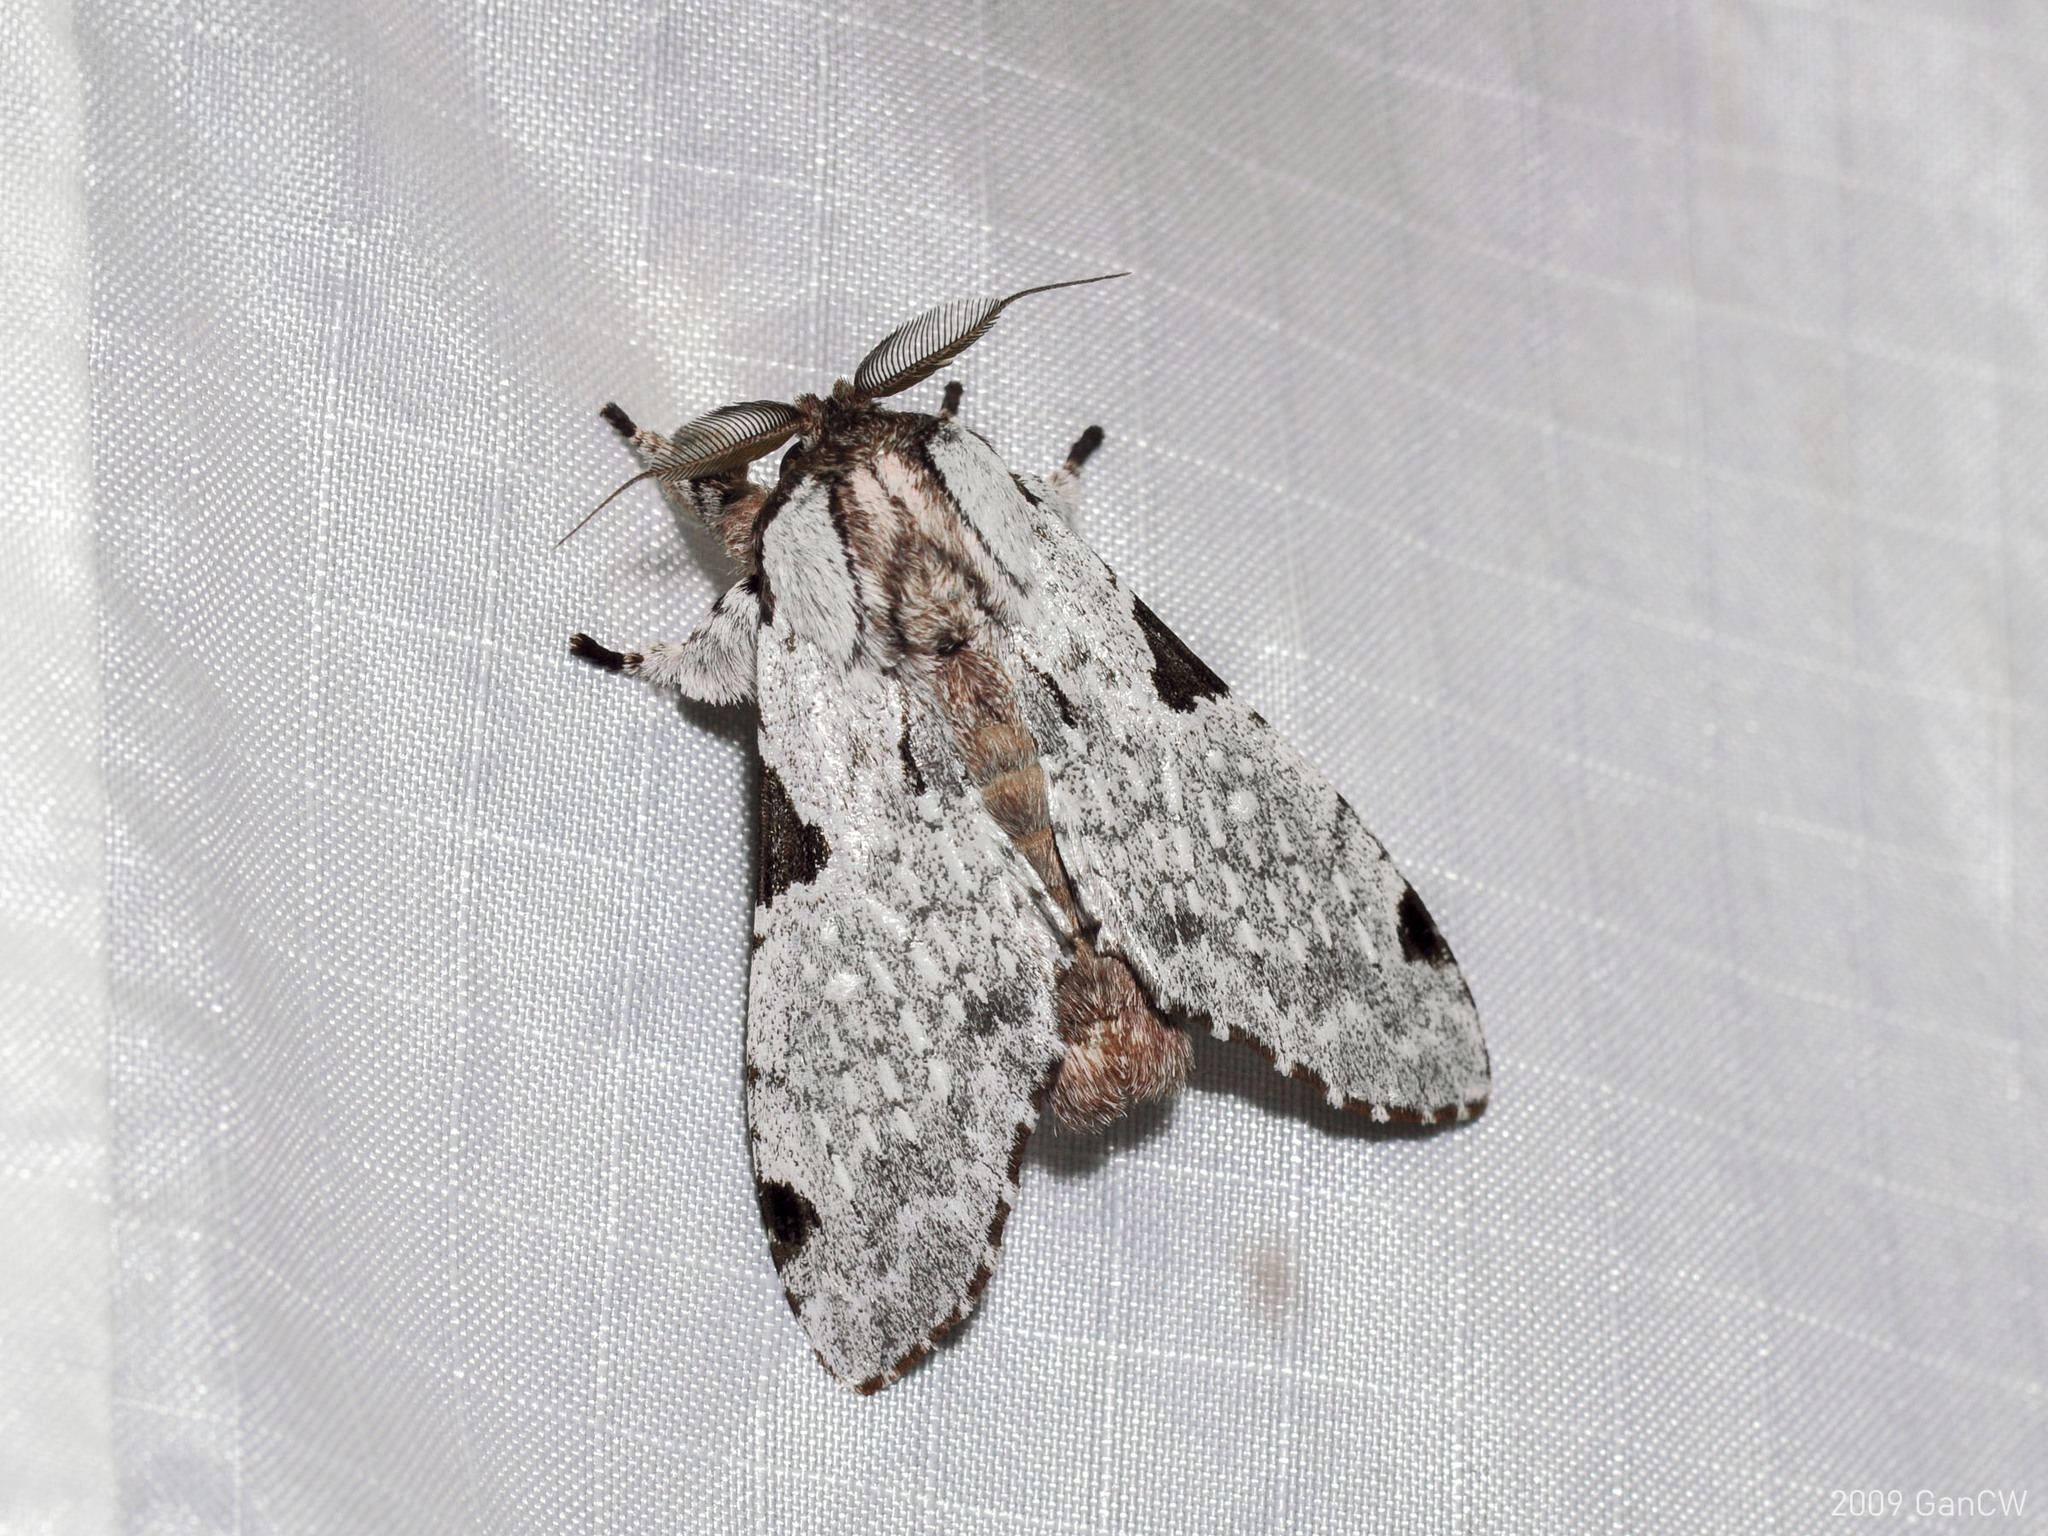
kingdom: Animalia
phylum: Arthropoda
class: Insecta
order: Lepidoptera
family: Notodontidae
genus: Harpyia
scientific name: Harpyia microsticta
